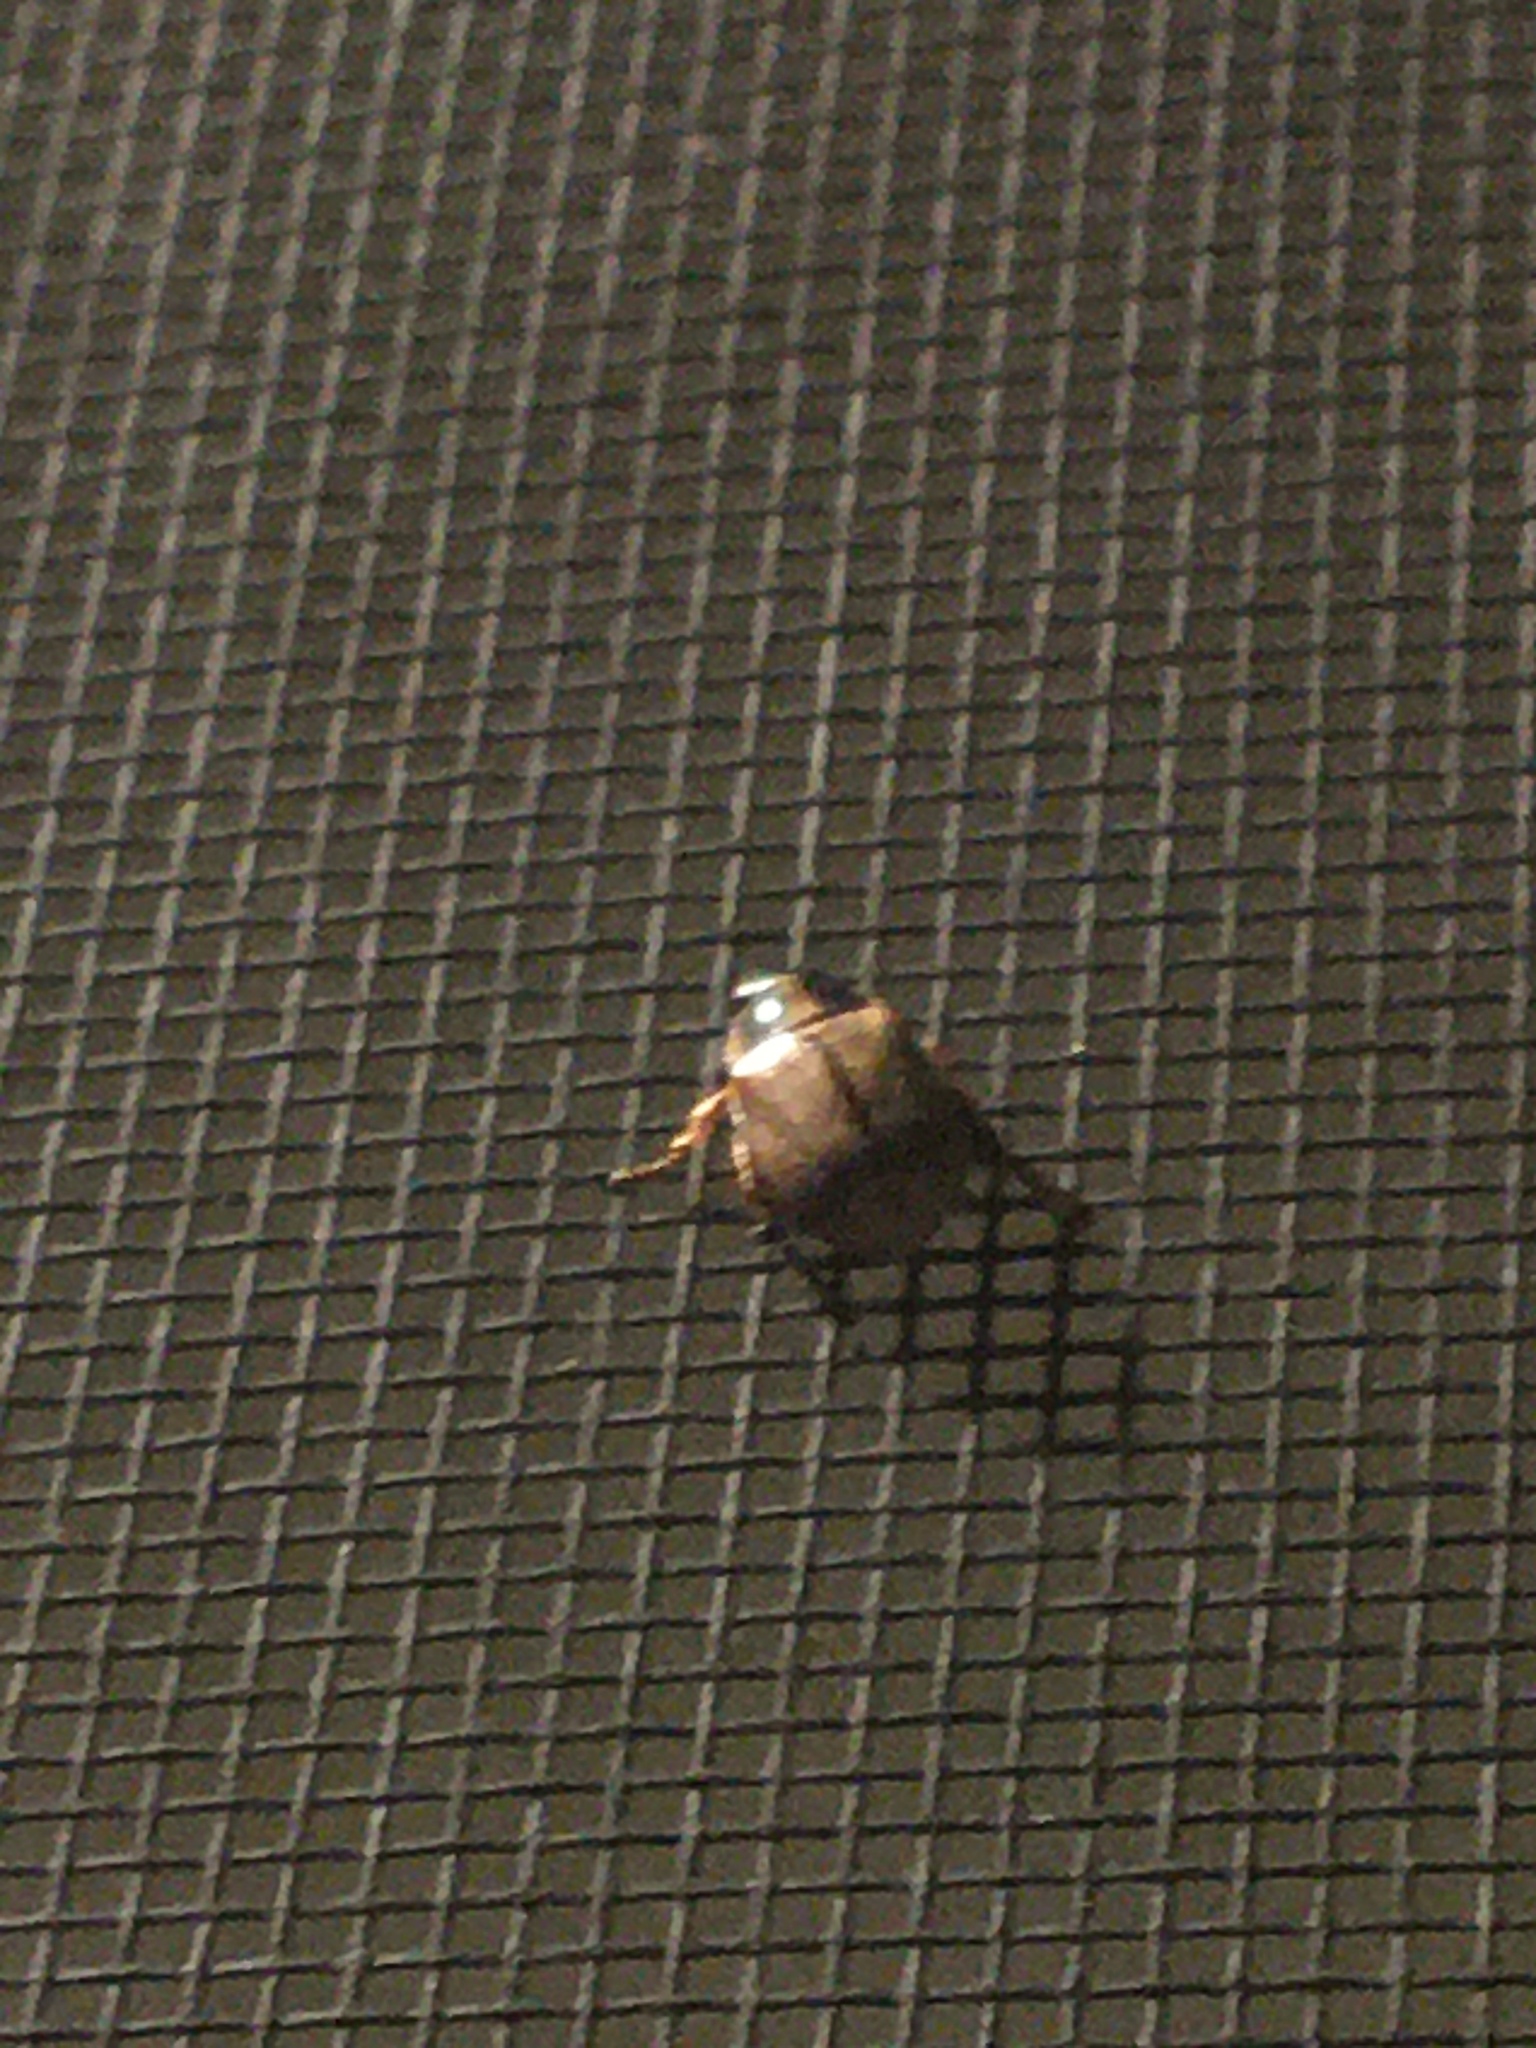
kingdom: Animalia
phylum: Arthropoda
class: Insecta
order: Coleoptera
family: Scarabaeidae
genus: Exomala
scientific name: Exomala orientalis
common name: Oriental beetle
